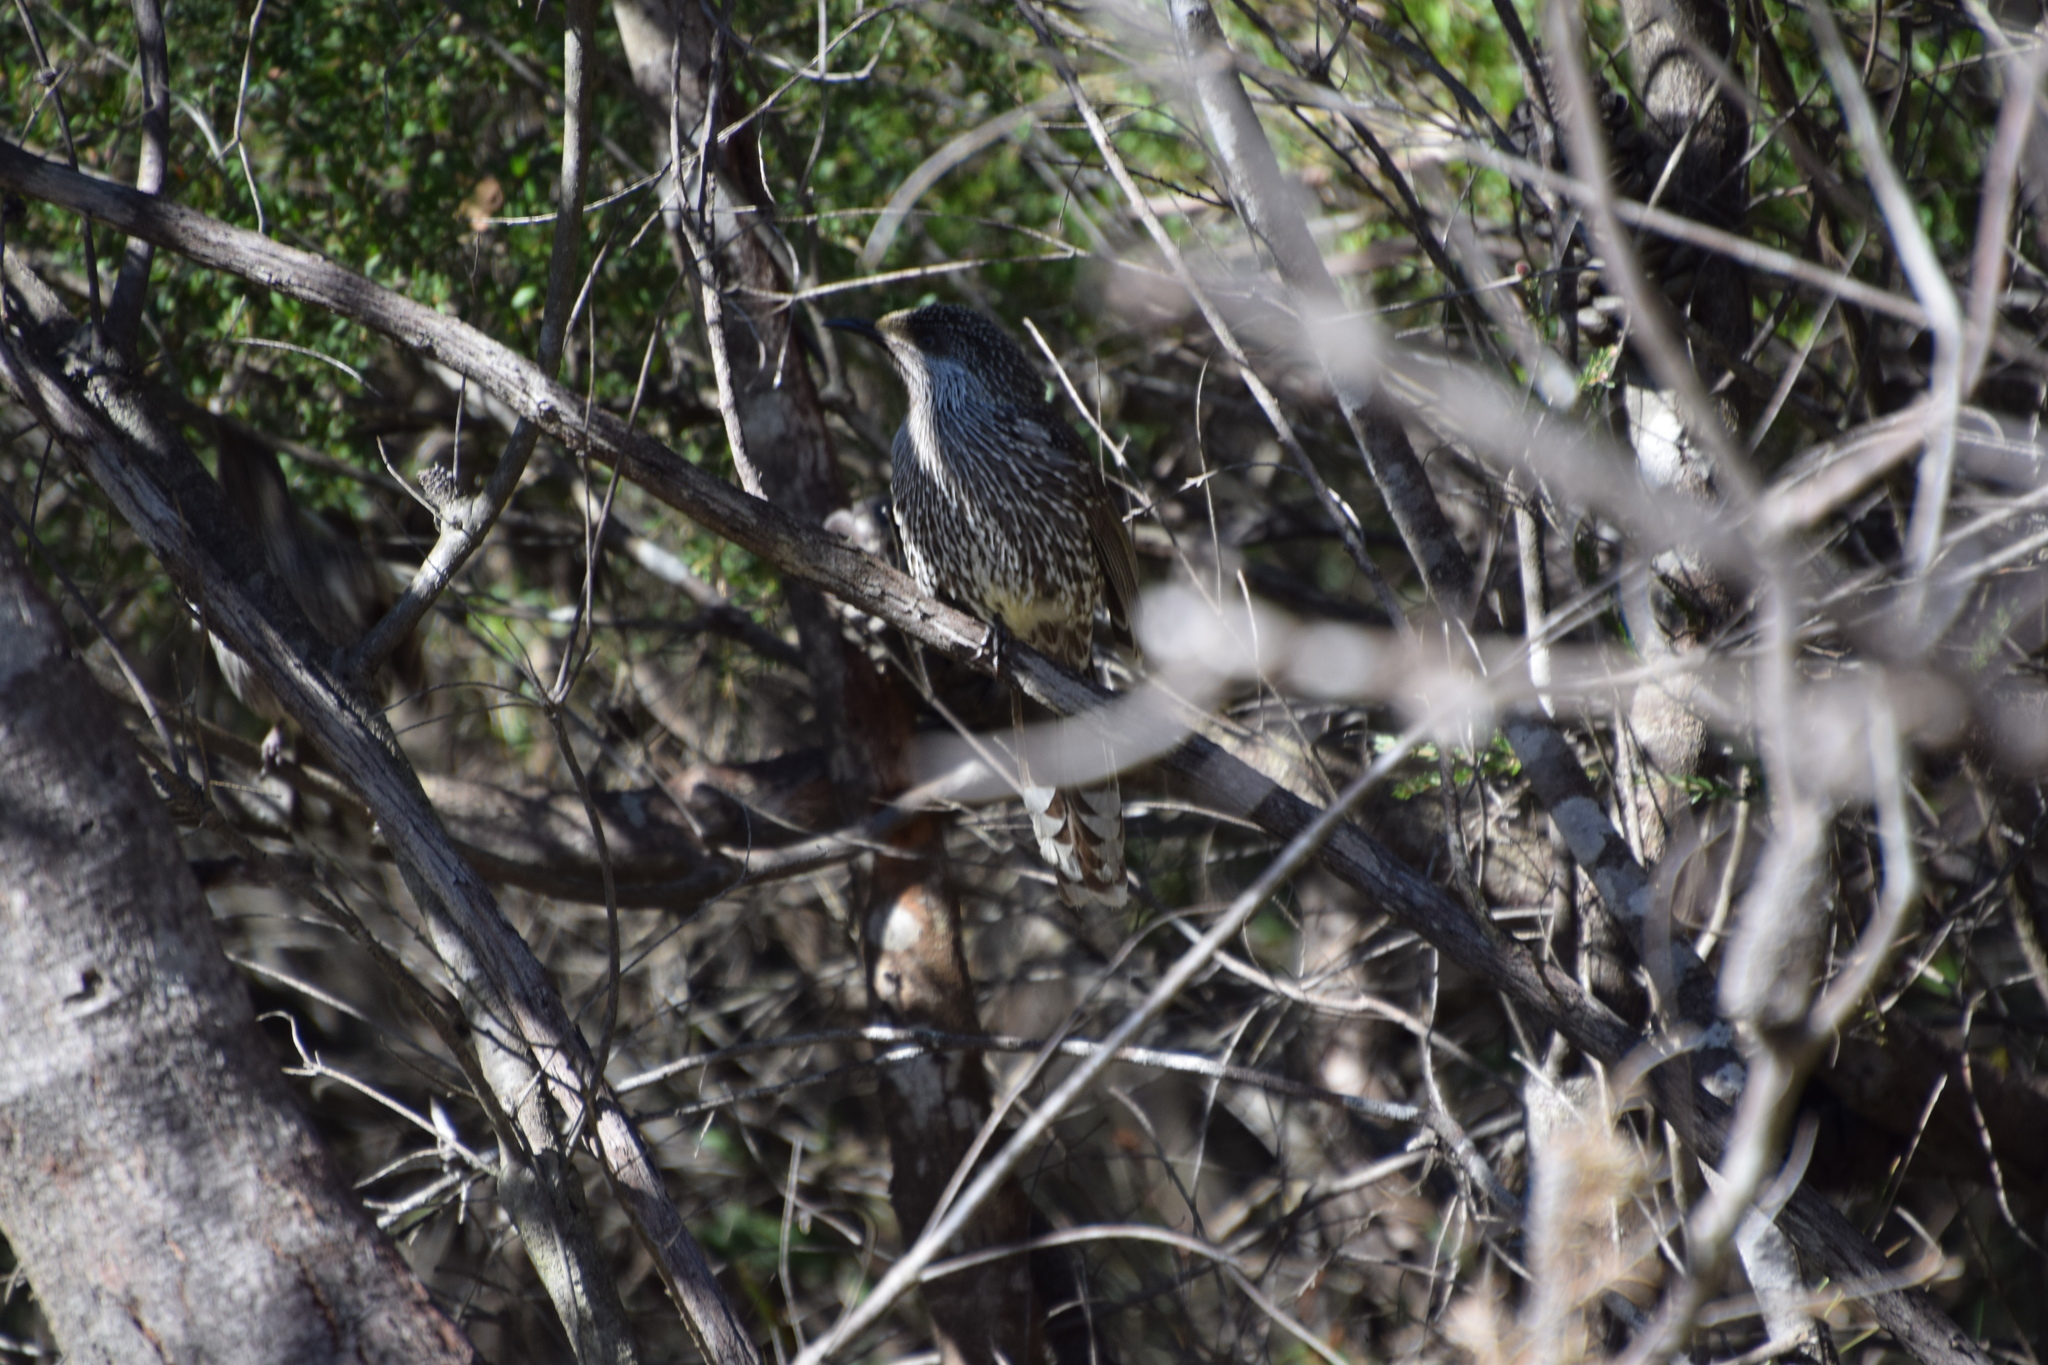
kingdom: Animalia
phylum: Chordata
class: Aves
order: Passeriformes
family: Meliphagidae
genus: Anthochaera
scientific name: Anthochaera chrysoptera
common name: Little wattlebird
